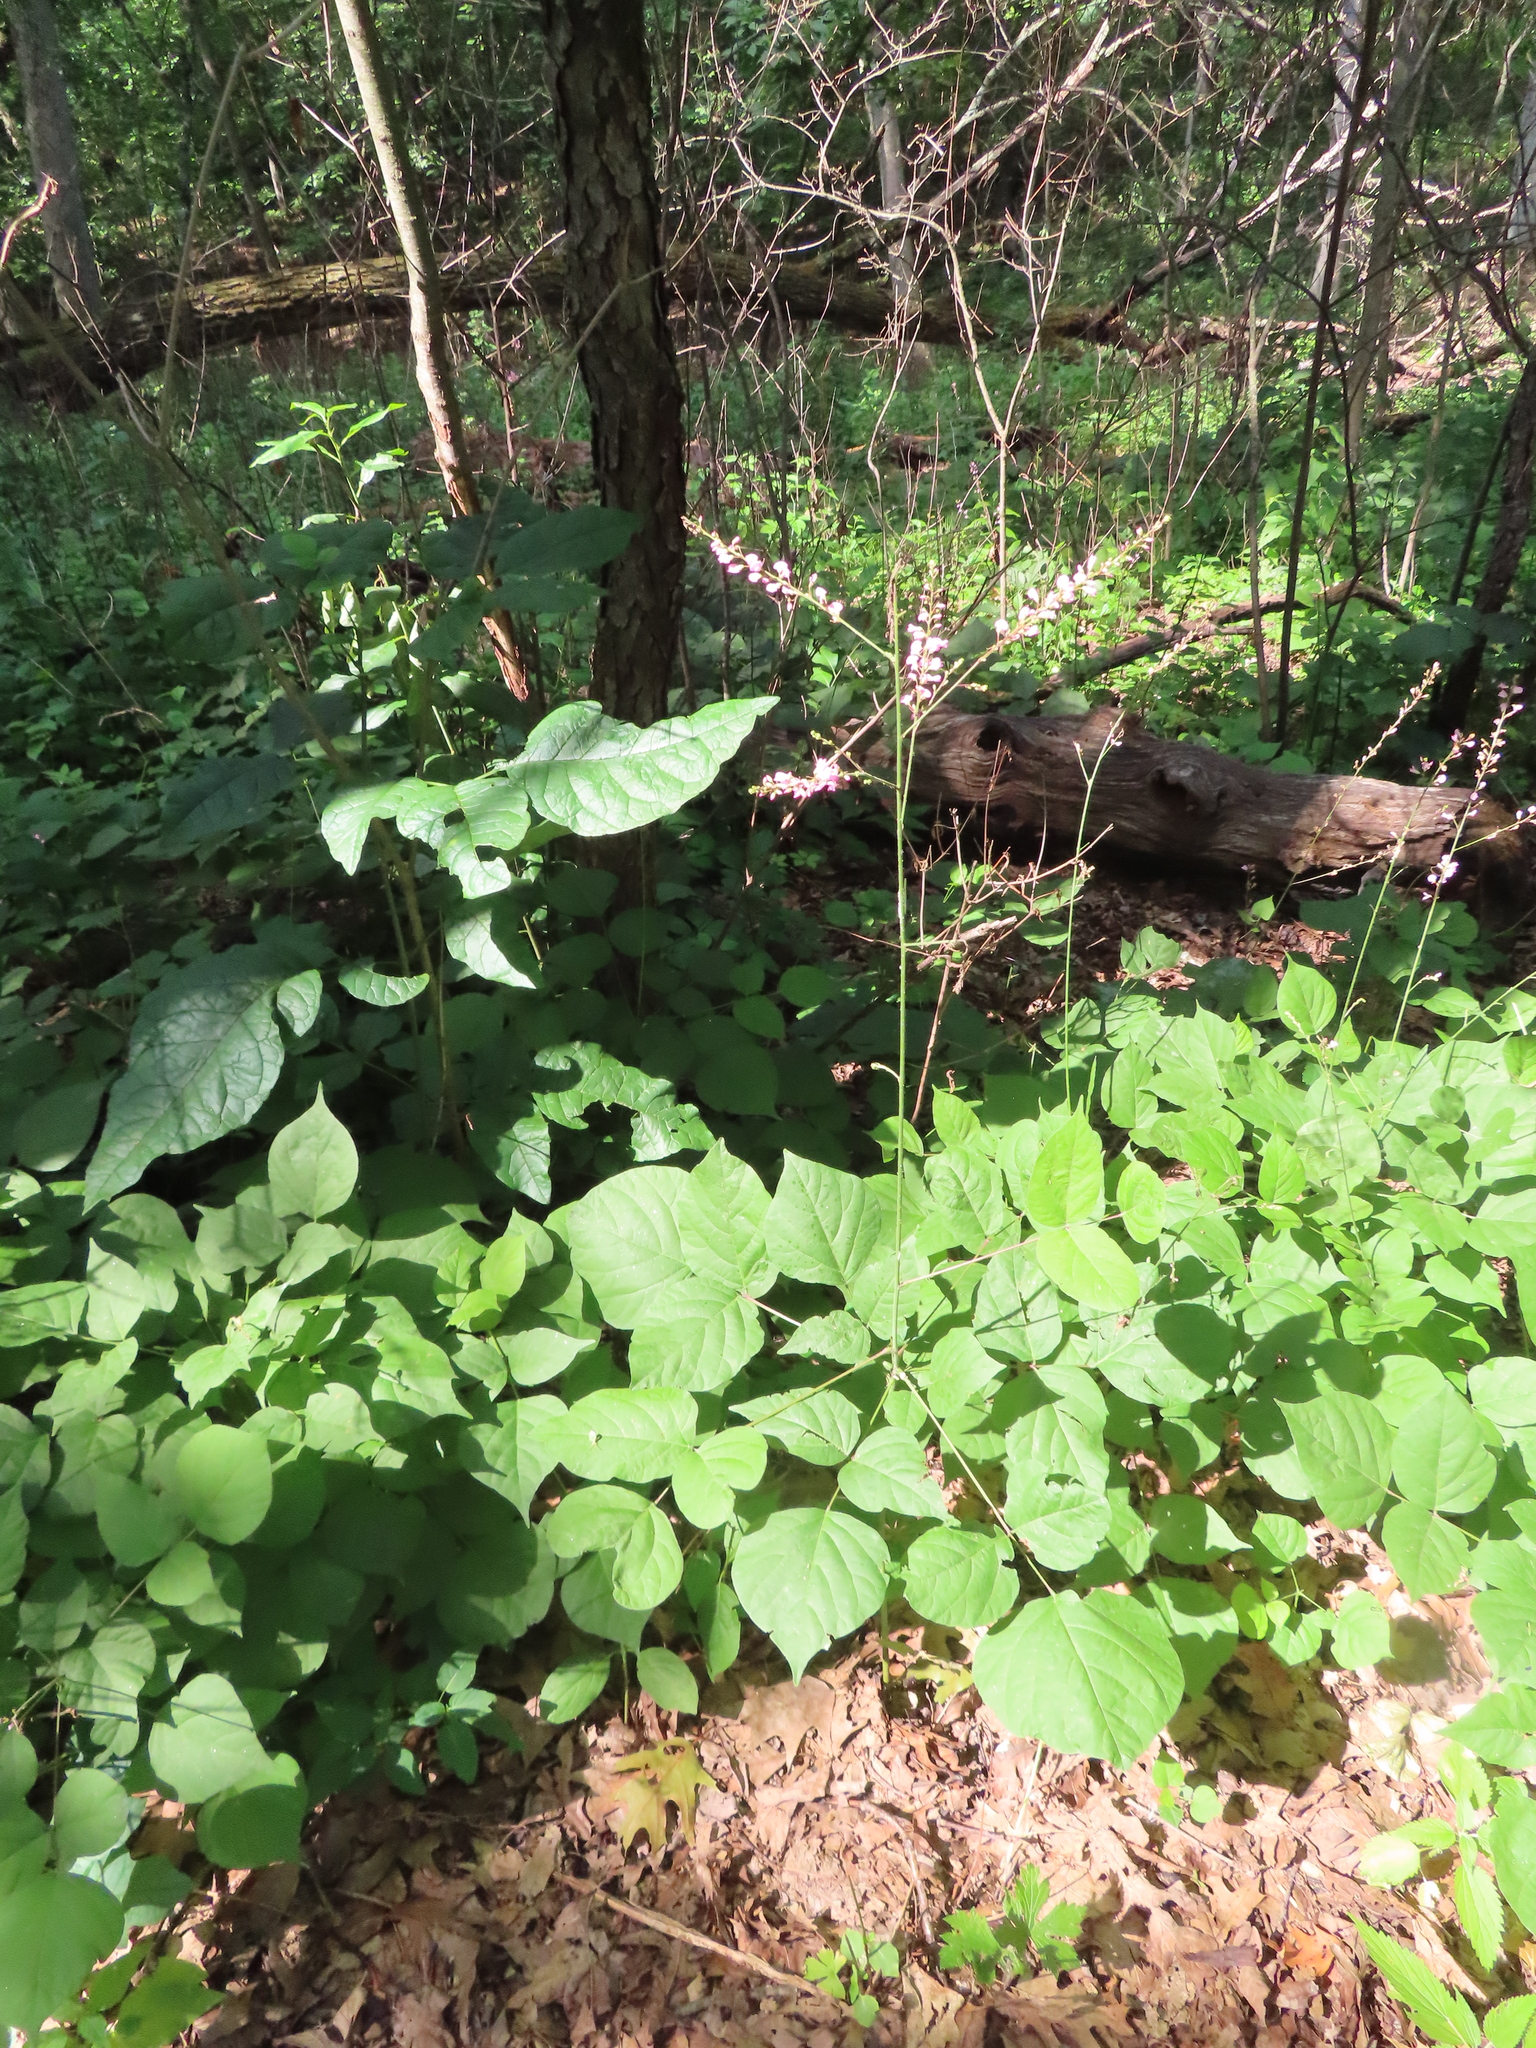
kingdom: Plantae
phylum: Tracheophyta
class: Magnoliopsida
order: Fabales
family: Fabaceae
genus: Hylodesmum
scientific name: Hylodesmum glutinosum
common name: Clustered-leaved tick-trefoil
